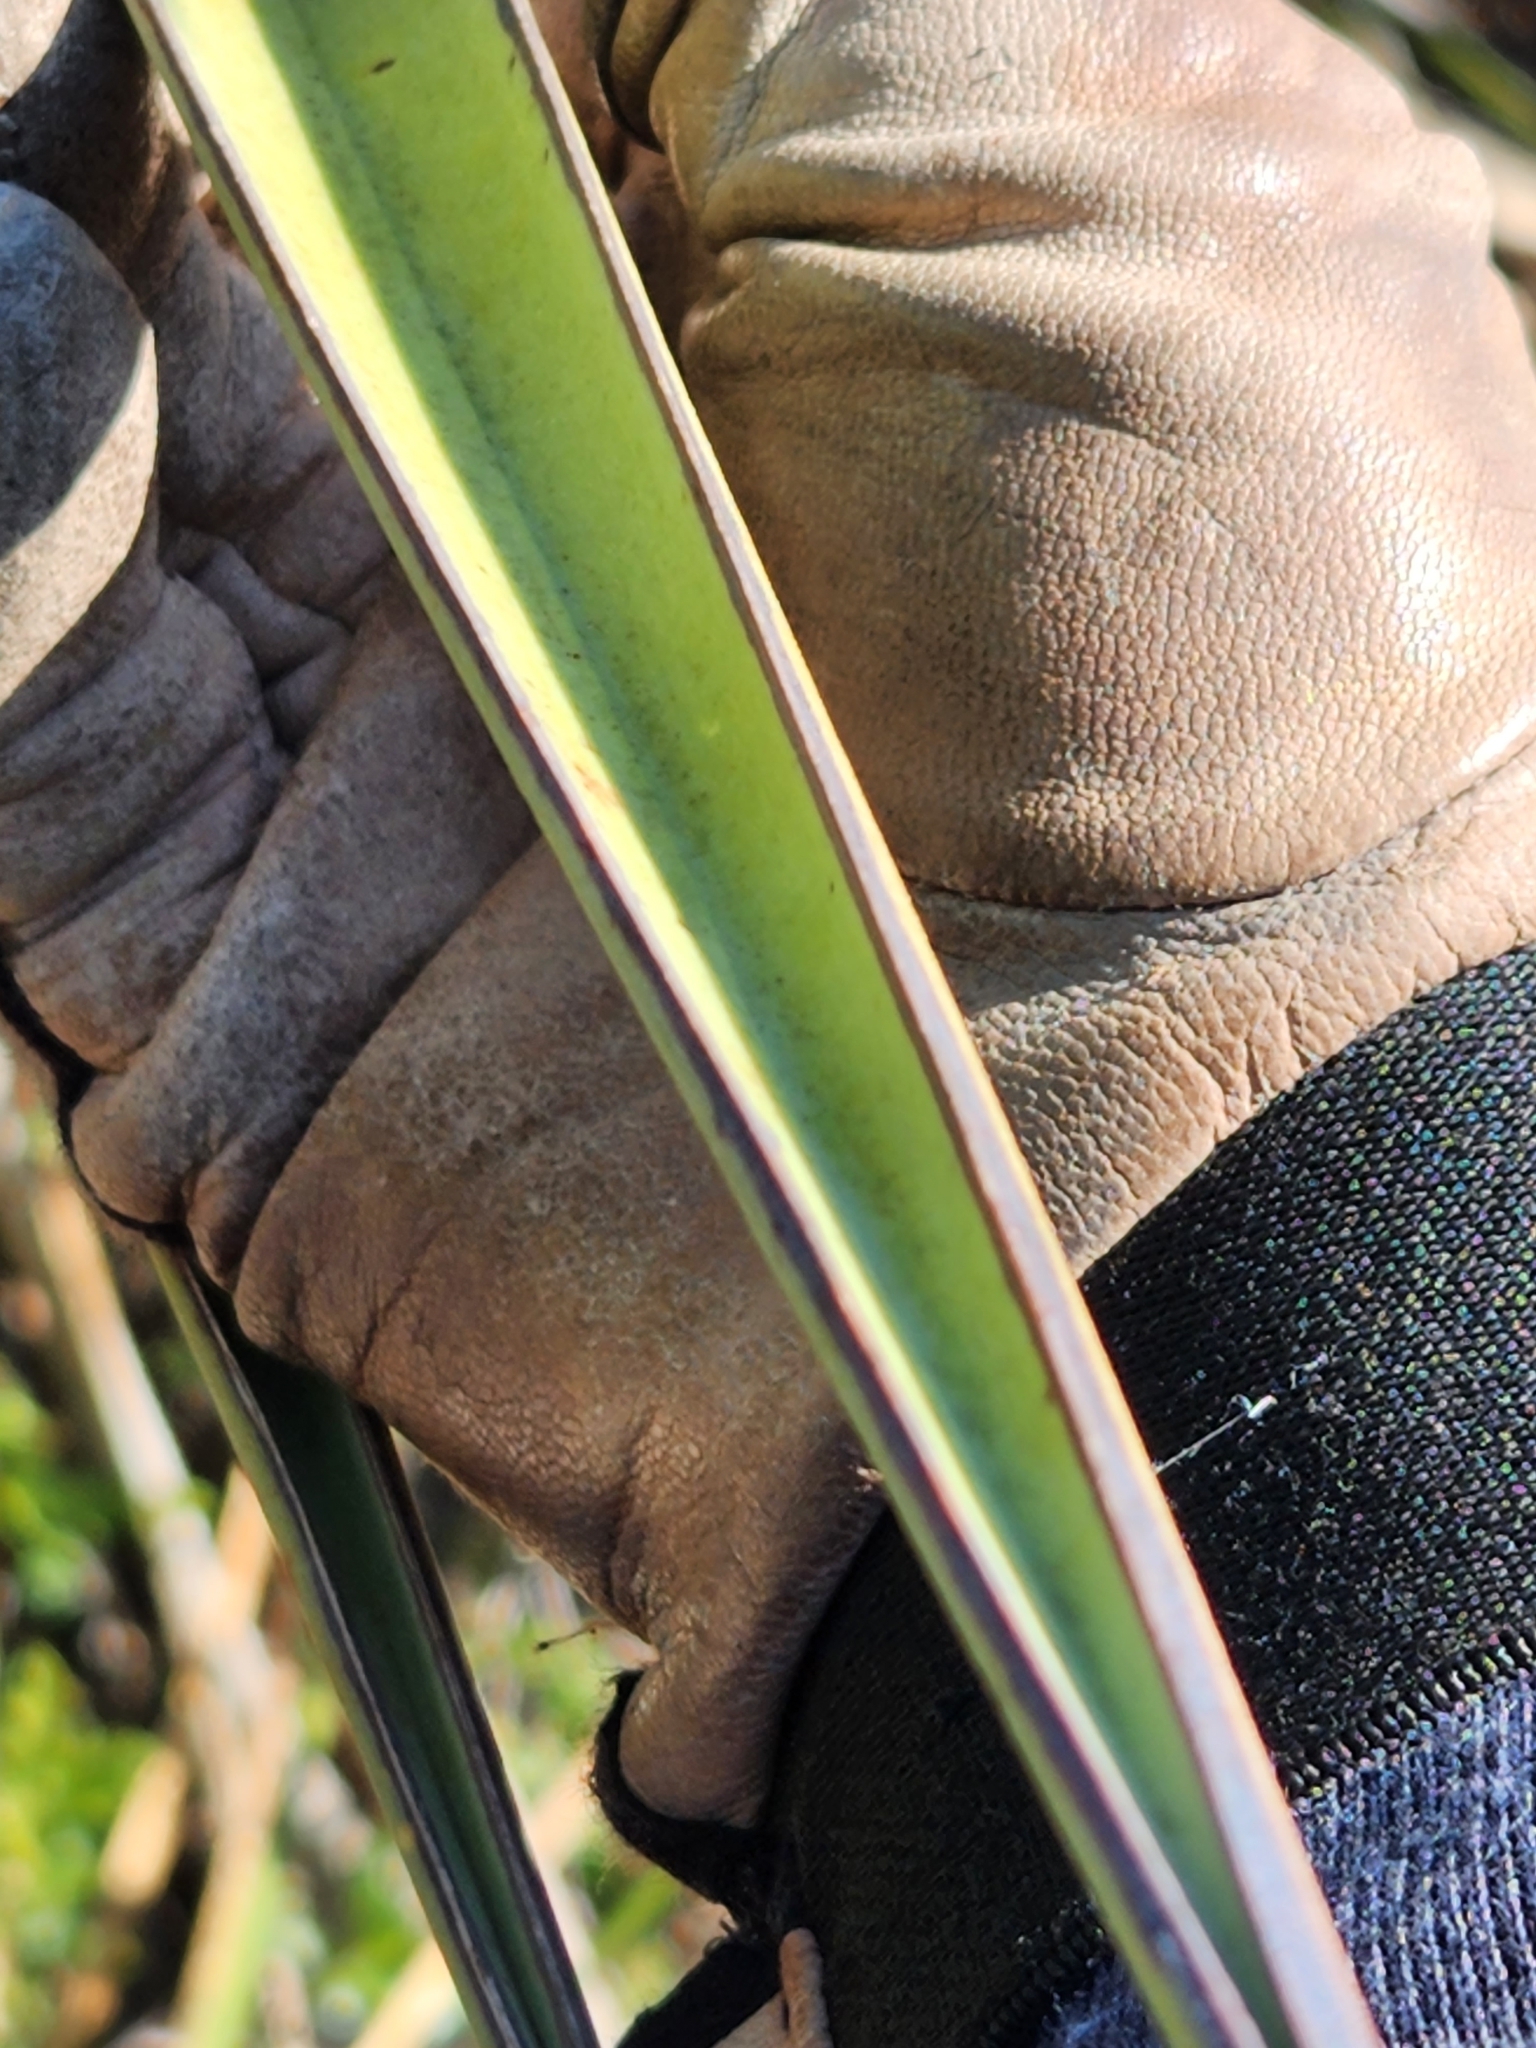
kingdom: Plantae
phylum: Tracheophyta
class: Liliopsida
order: Asparagales
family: Asparagaceae
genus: Yucca
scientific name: Yucca treculiana
